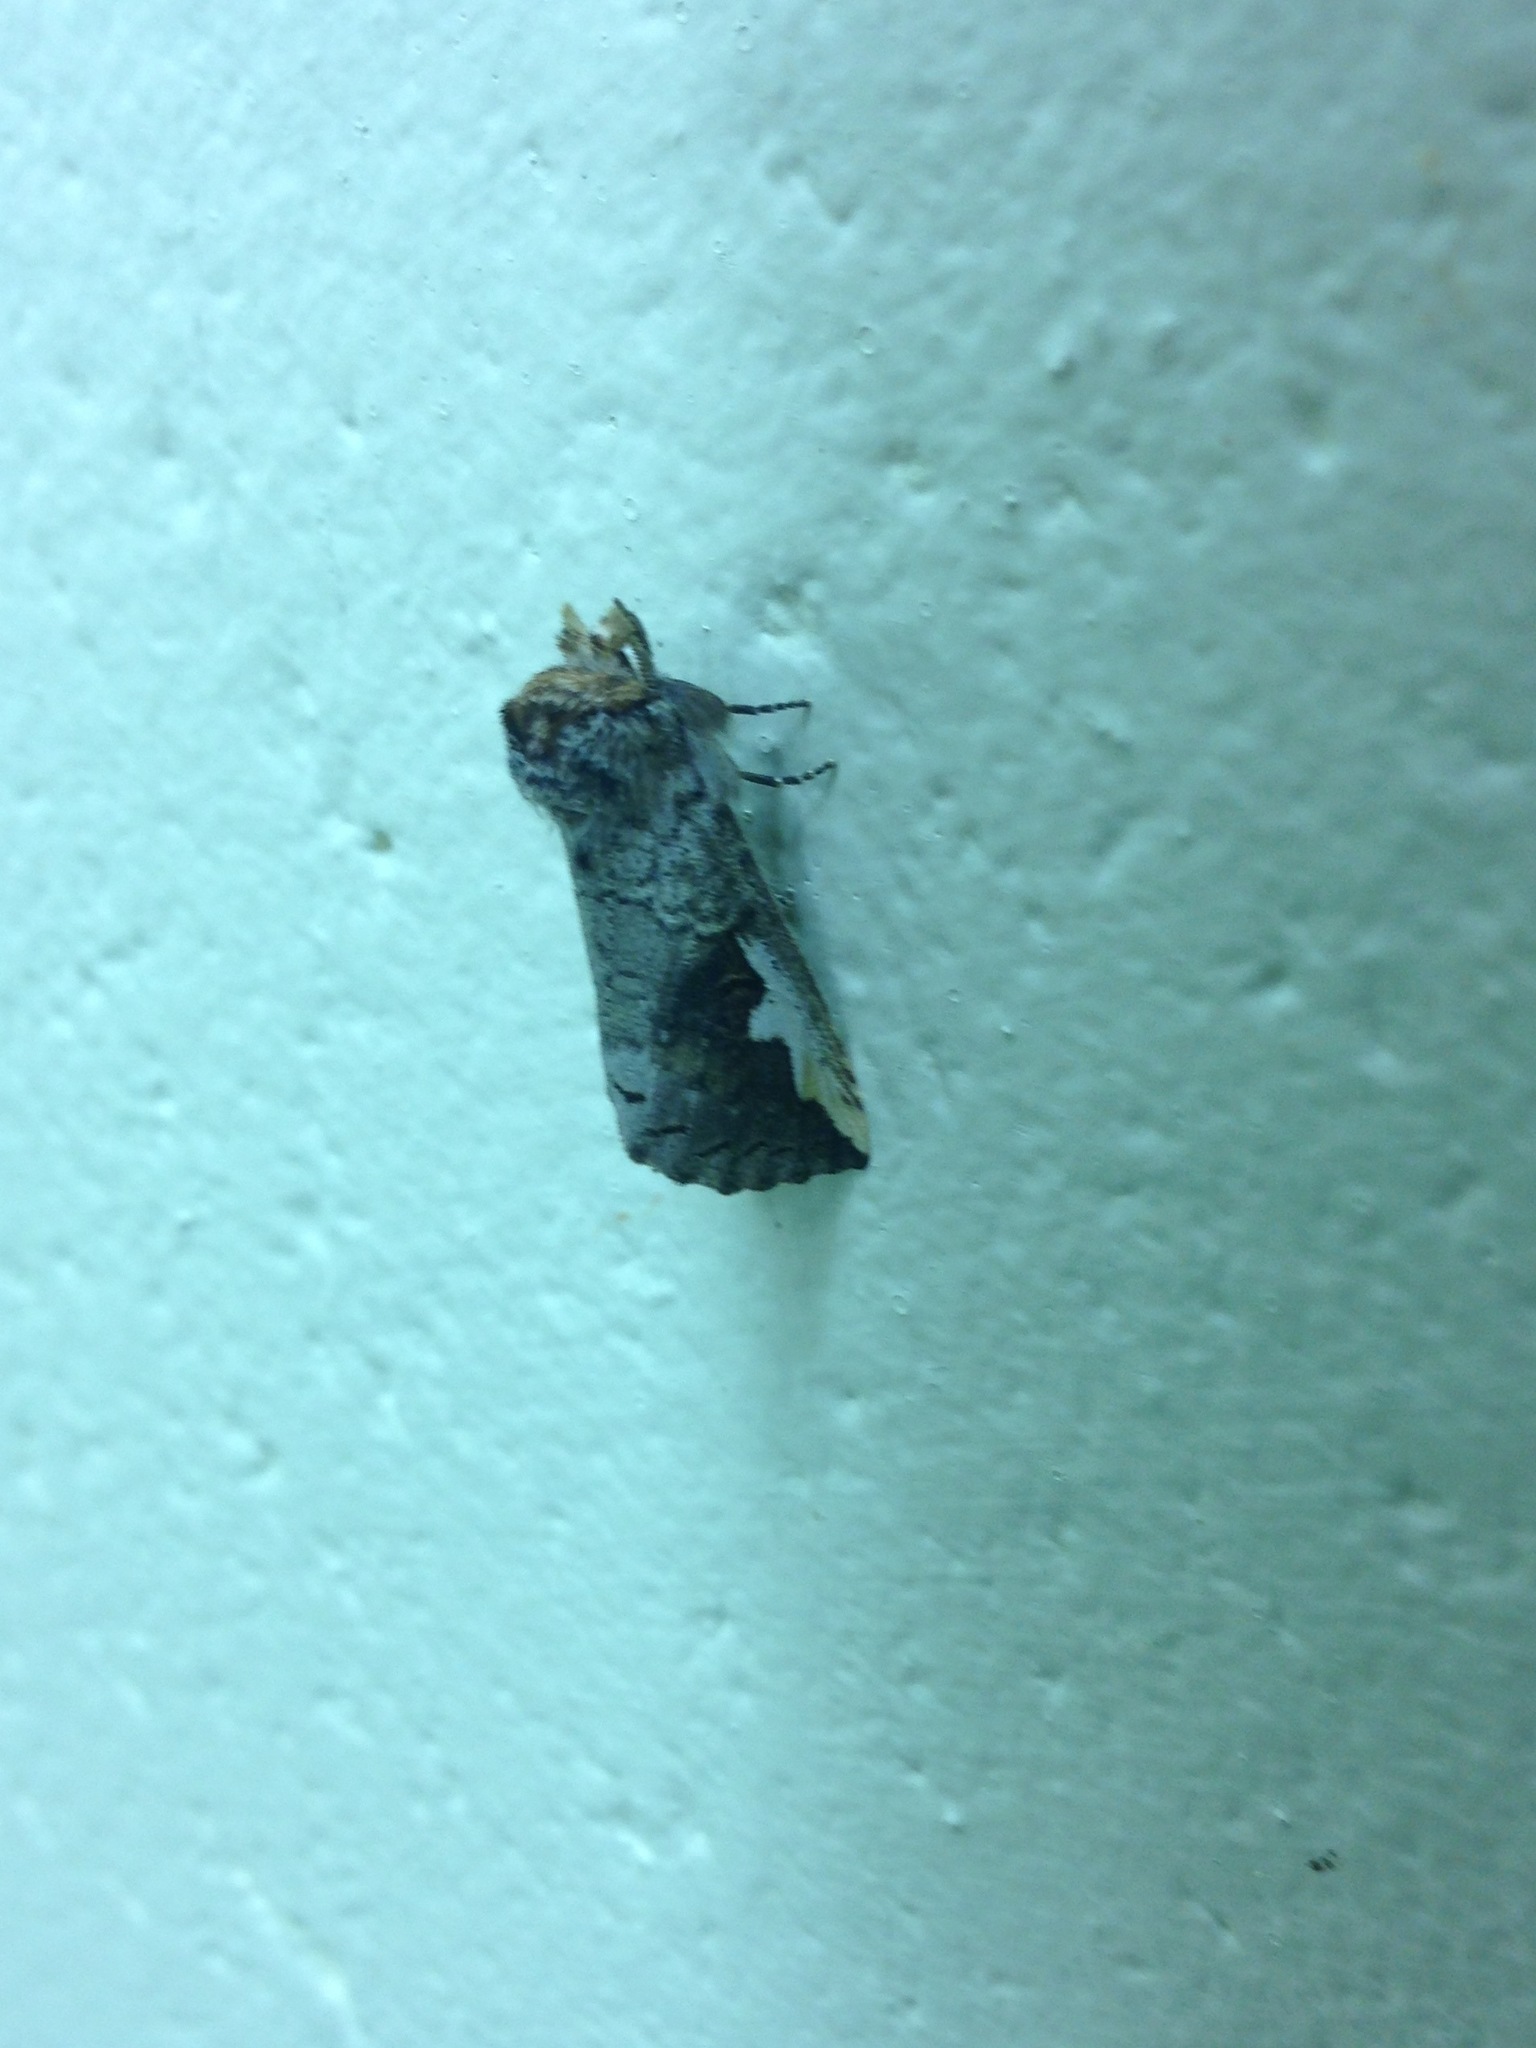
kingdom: Animalia
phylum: Arthropoda
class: Insecta
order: Lepidoptera
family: Notodontidae
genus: Symmerista
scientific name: Symmerista
